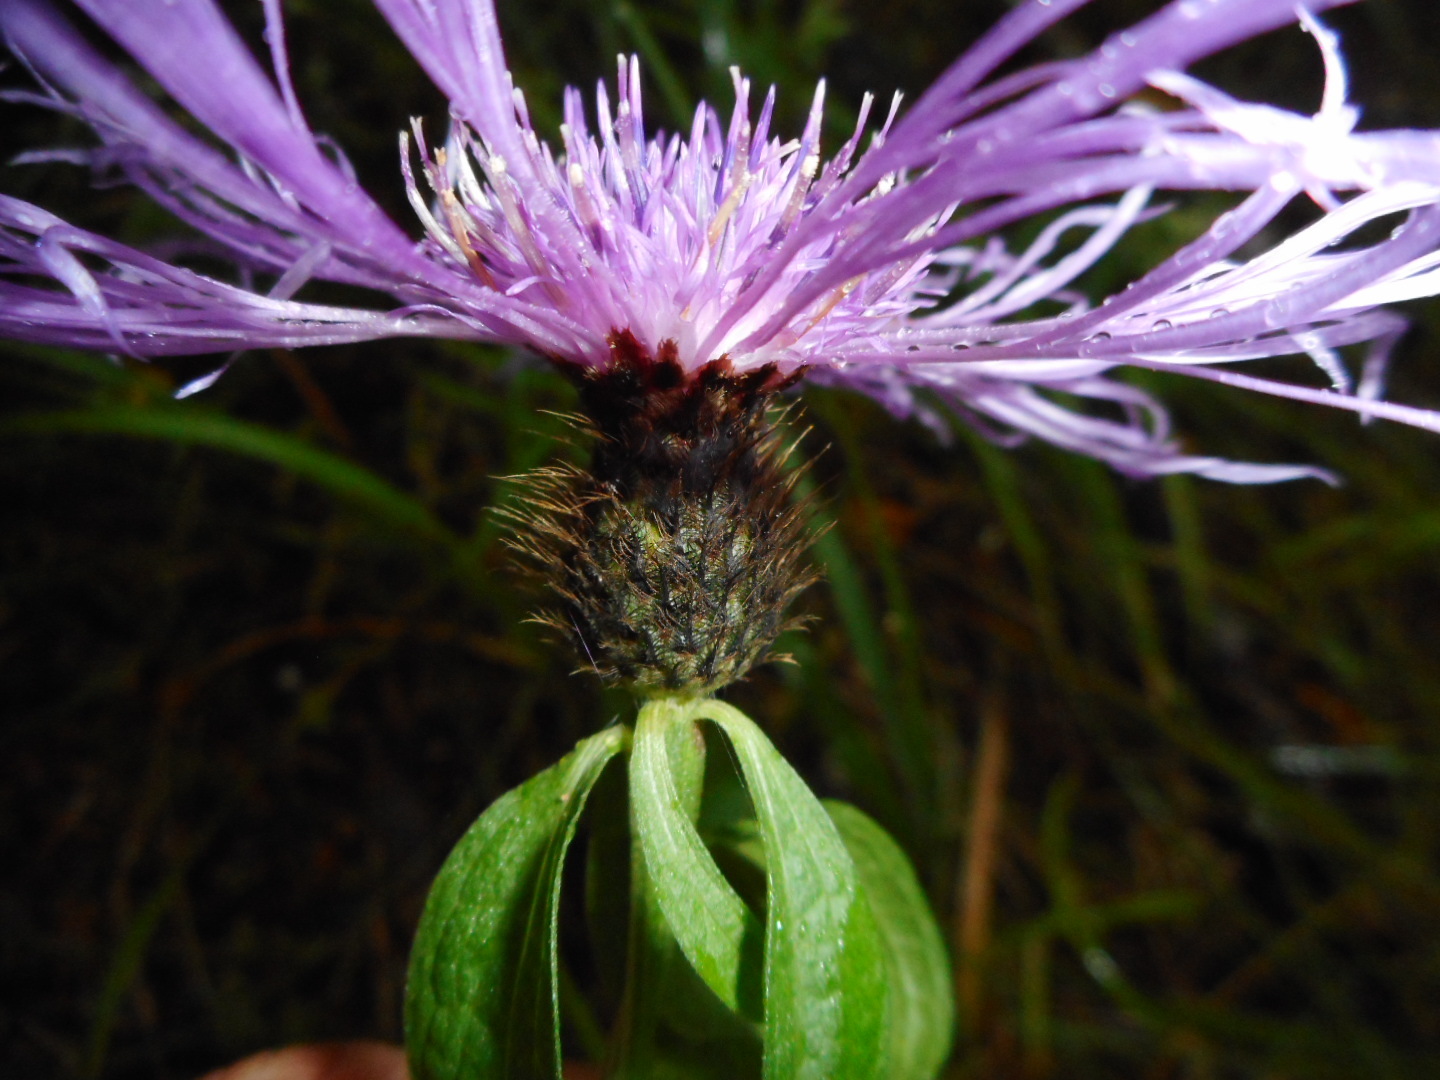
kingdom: Plantae
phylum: Tracheophyta
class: Magnoliopsida
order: Asterales
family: Asteraceae
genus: Centaurea
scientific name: Centaurea phrygia
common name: Wig knapweed
